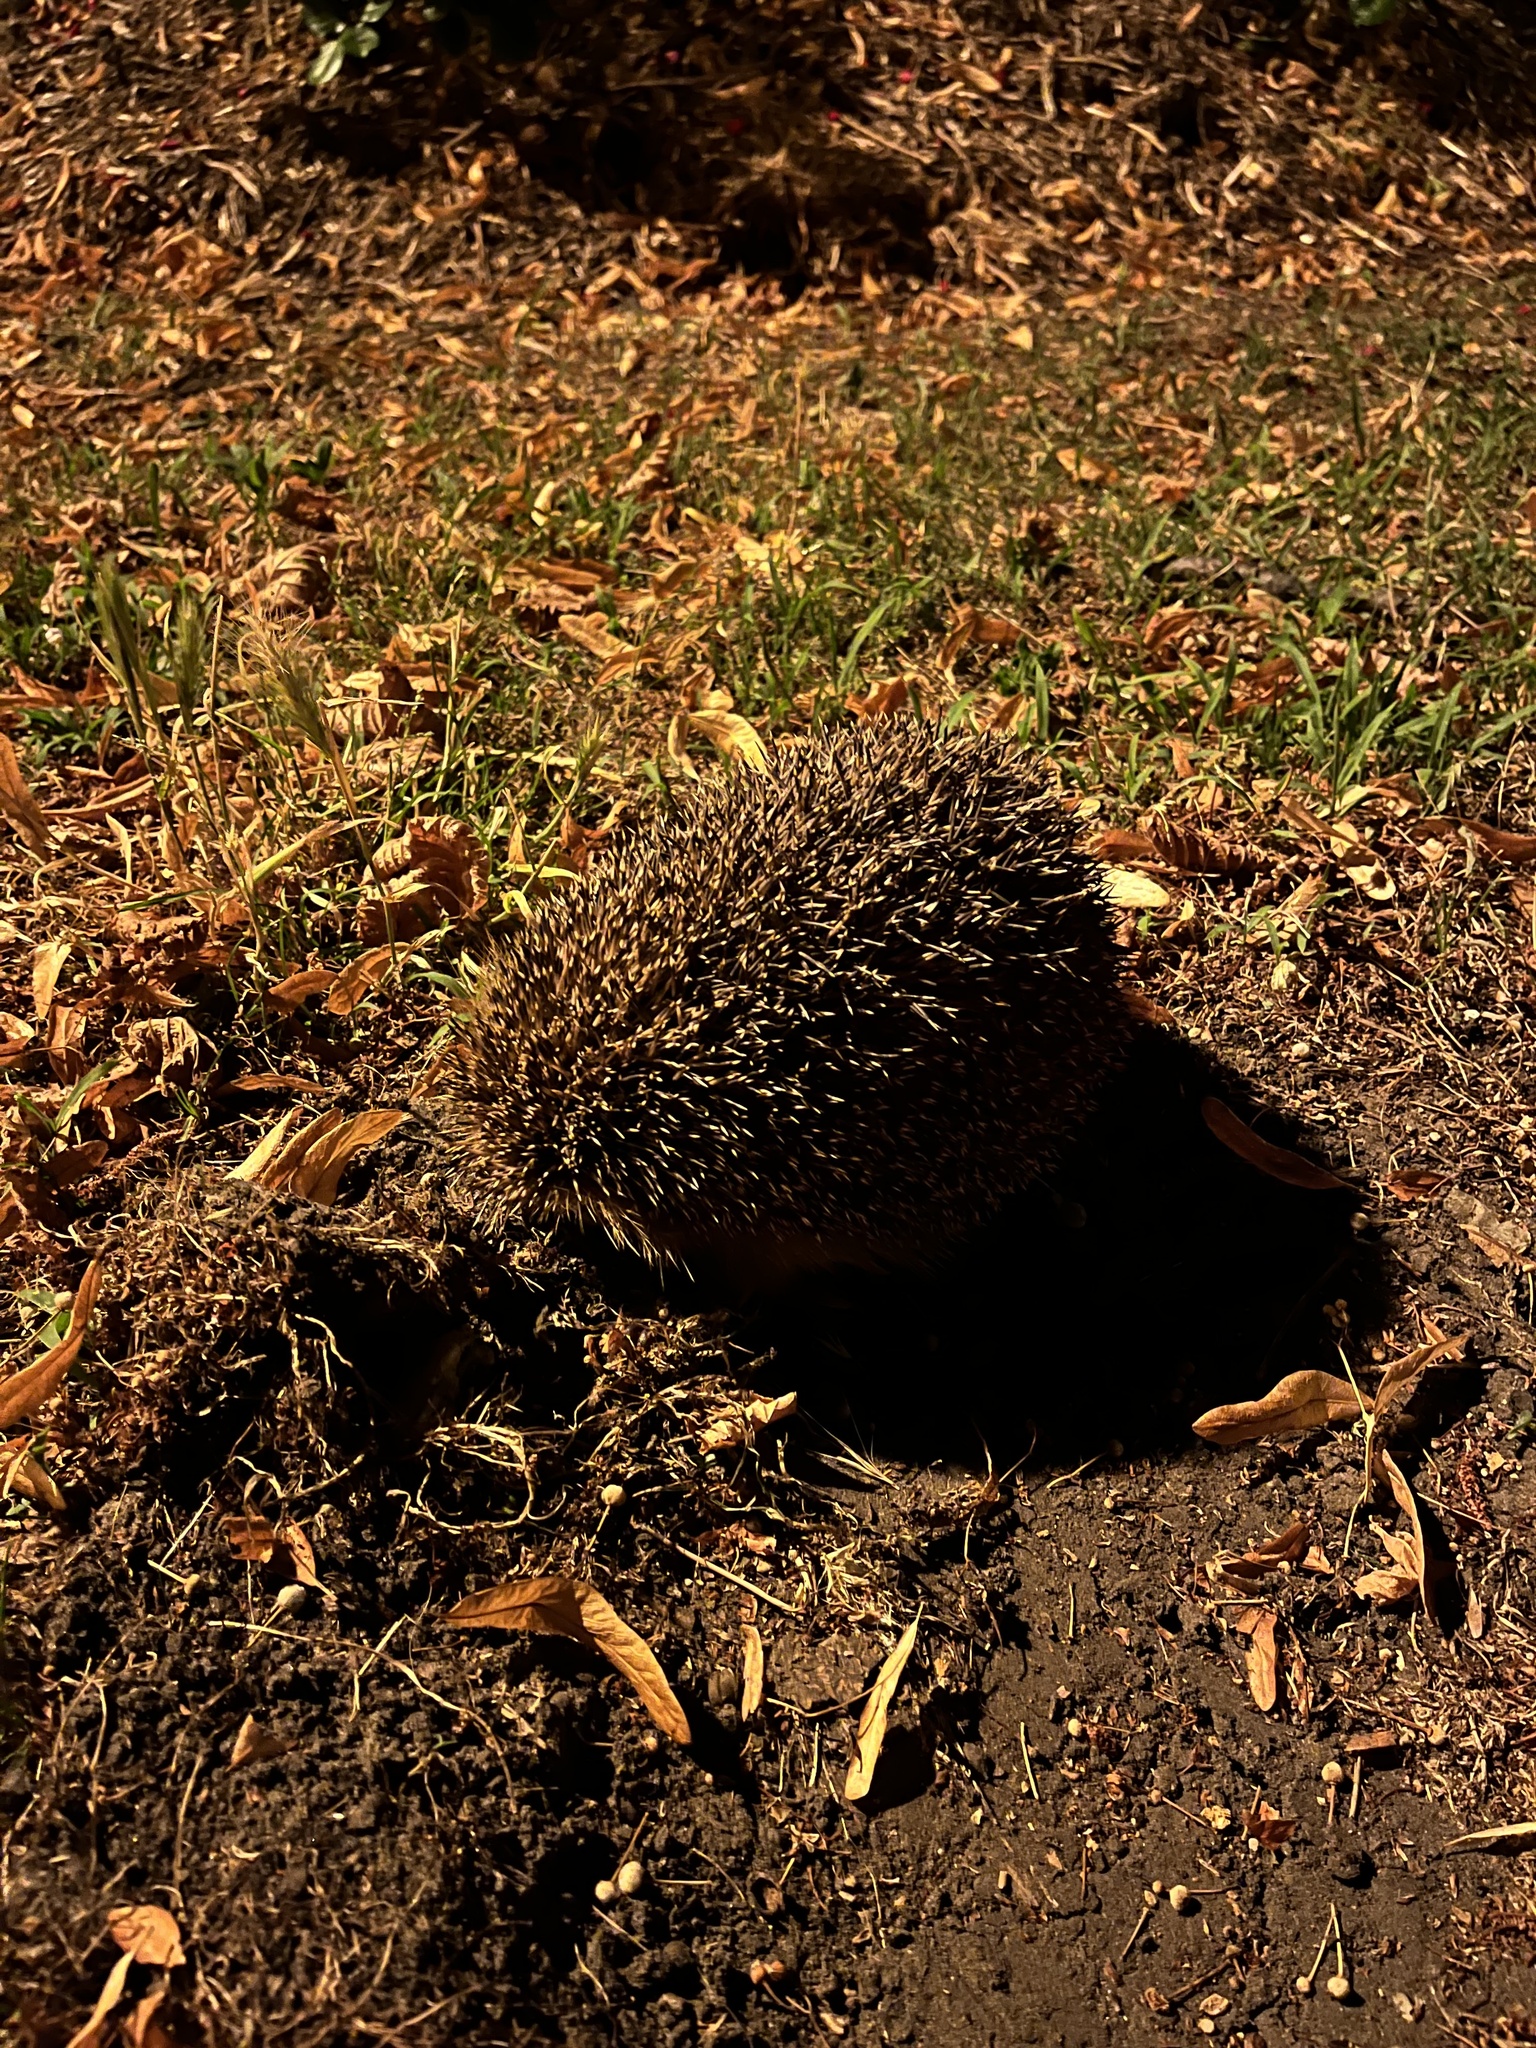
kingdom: Animalia
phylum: Chordata
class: Mammalia
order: Erinaceomorpha
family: Erinaceidae
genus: Erinaceus
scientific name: Erinaceus europaeus
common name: West european hedgehog
